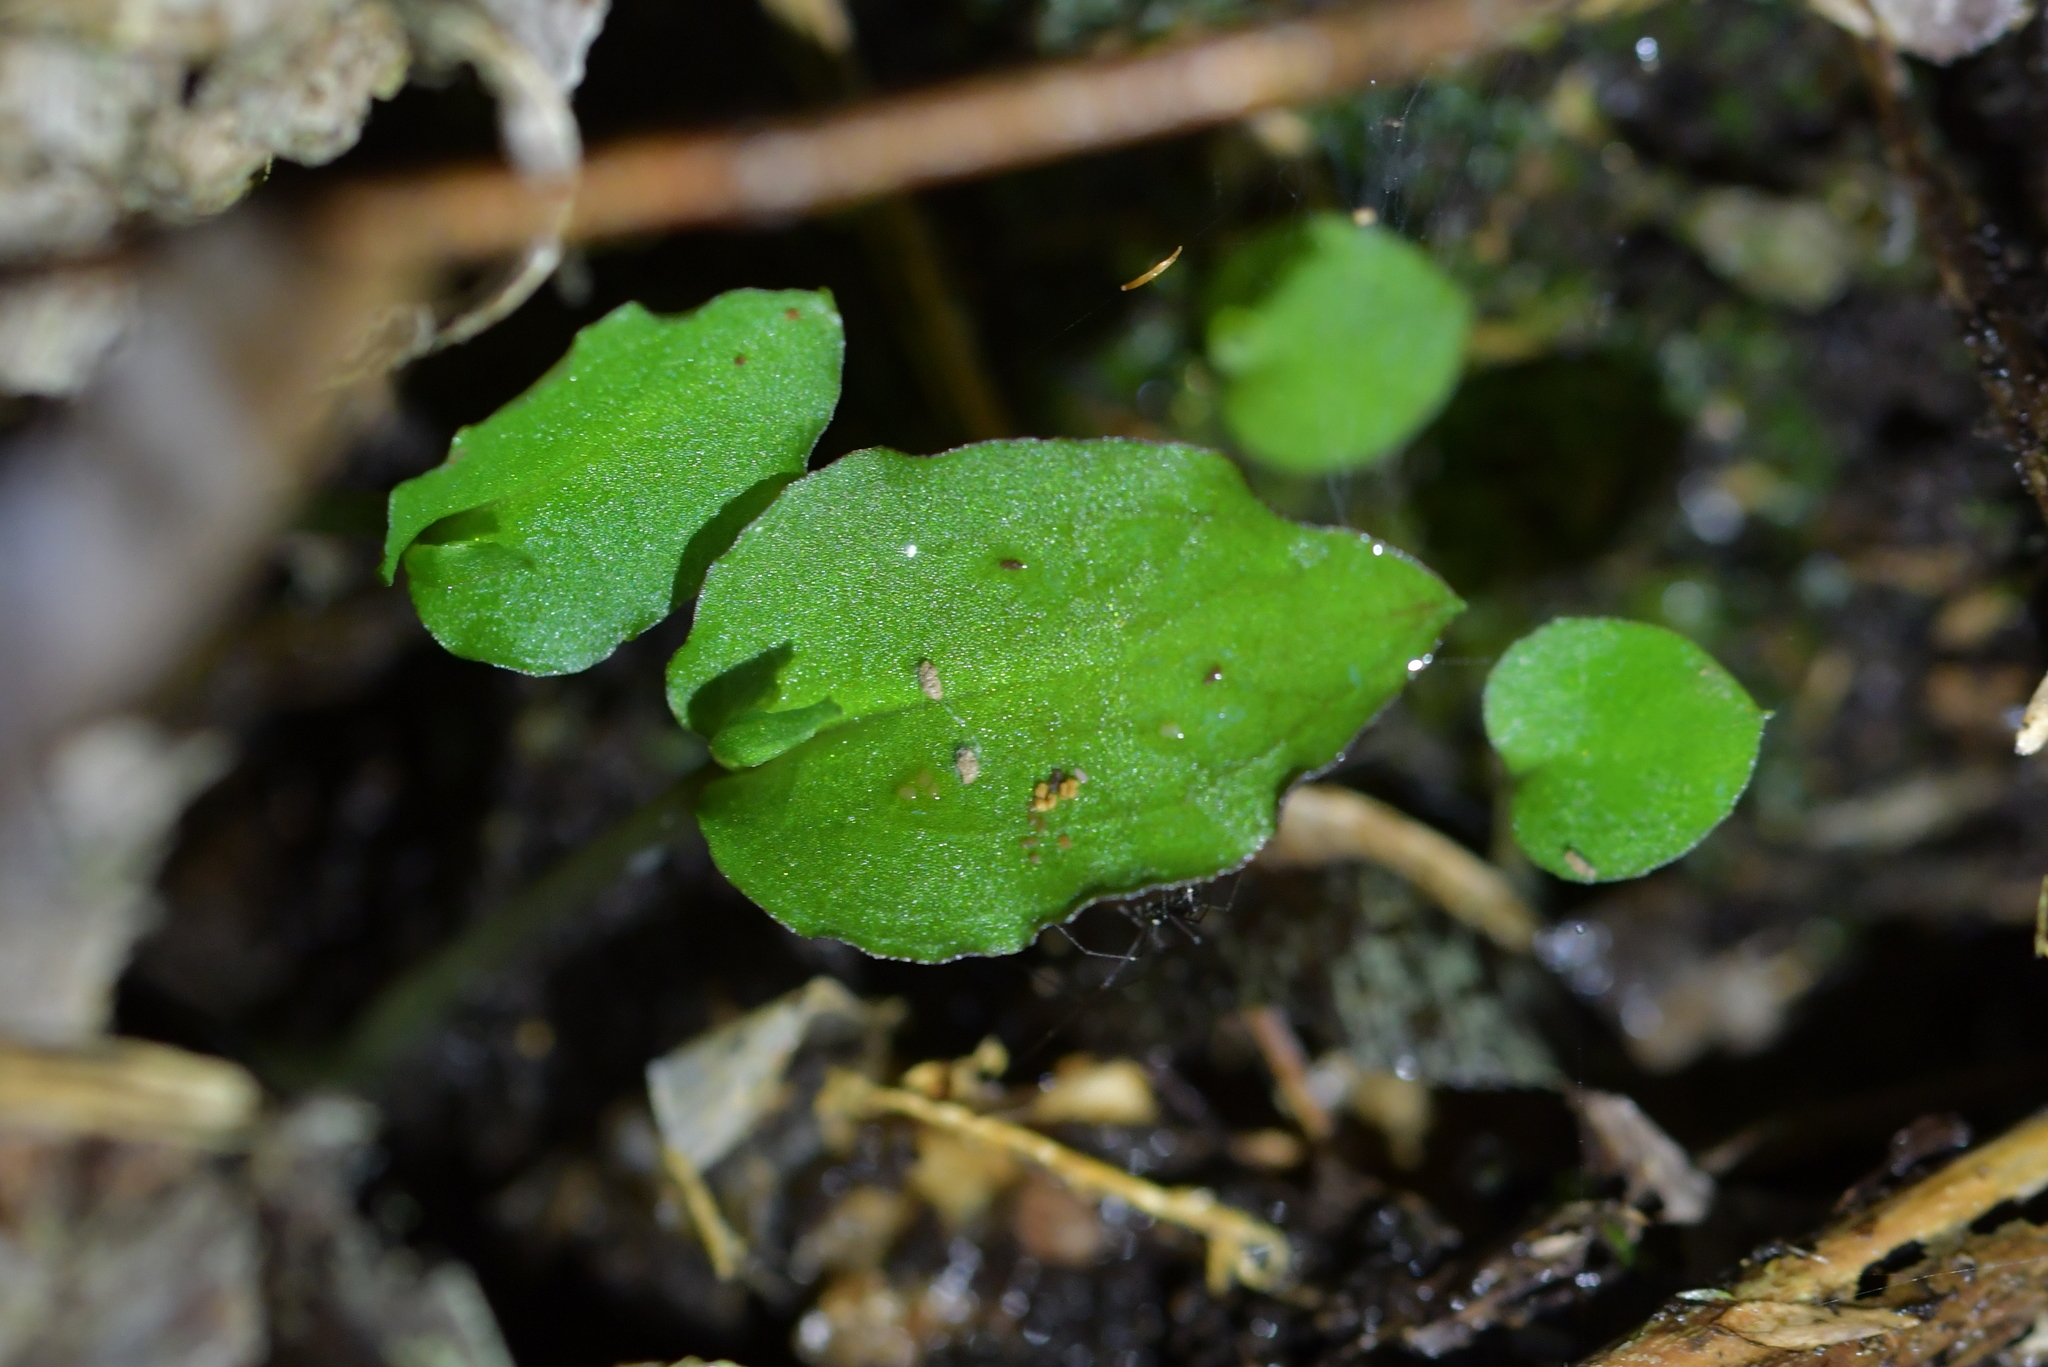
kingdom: Plantae
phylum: Tracheophyta
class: Liliopsida
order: Asparagales
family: Orchidaceae
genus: Corybas
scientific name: Corybas oblongus
